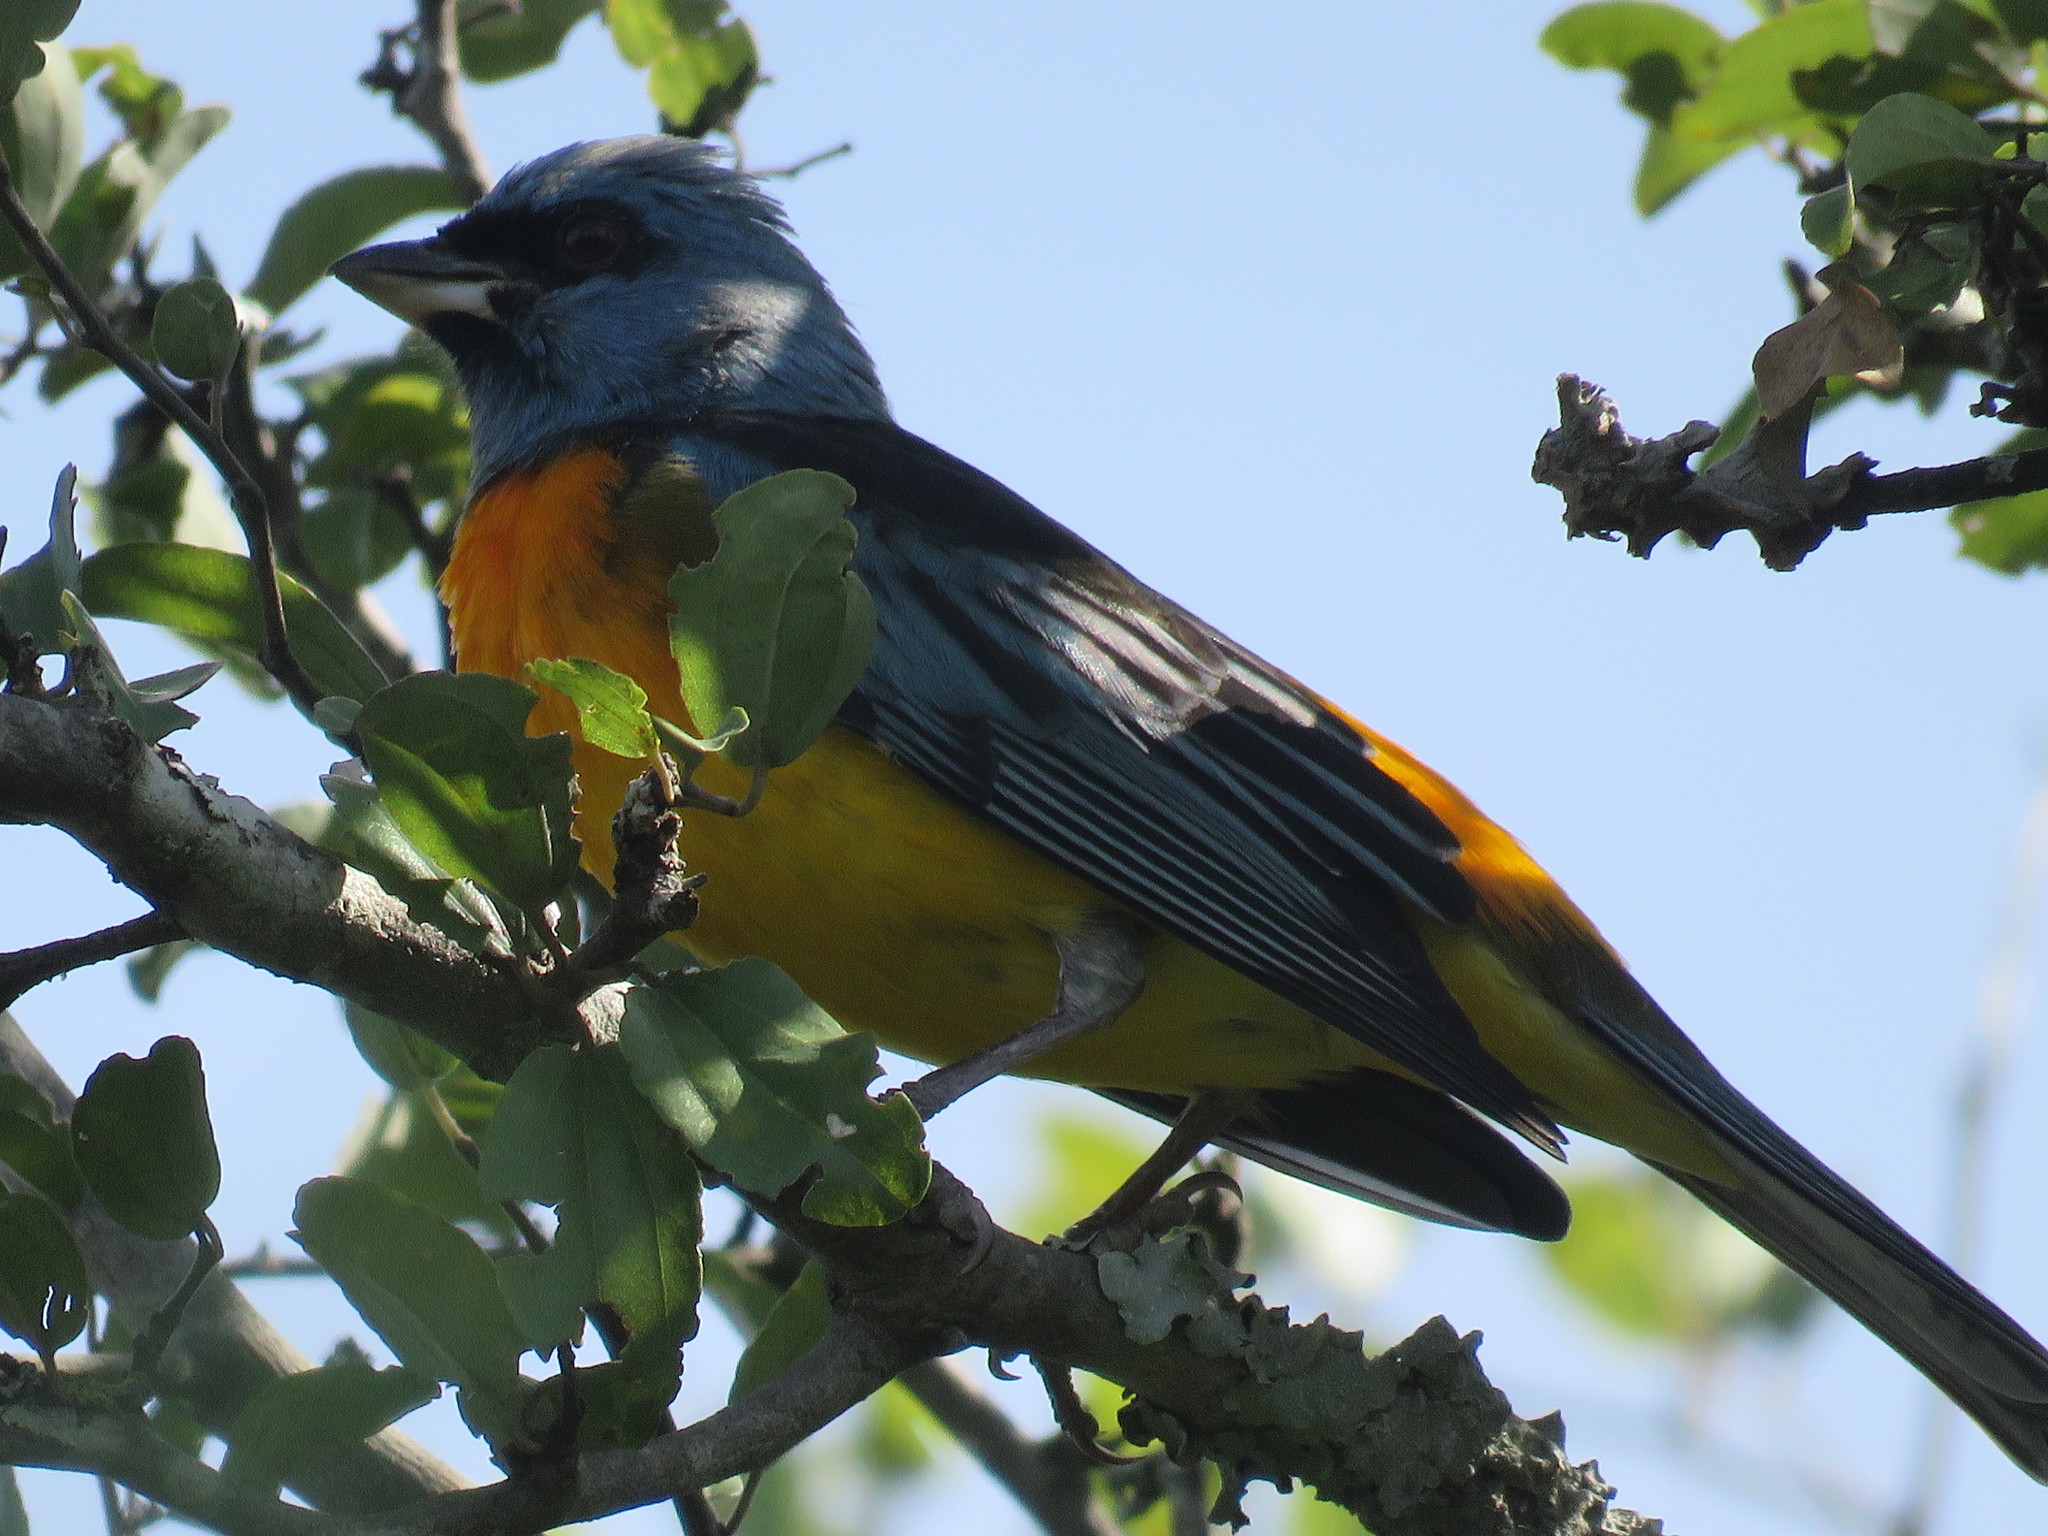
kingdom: Animalia
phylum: Chordata
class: Aves
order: Passeriformes
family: Thraupidae
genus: Rauenia
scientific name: Rauenia bonariensis
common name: Blue-and-yellow tanager
